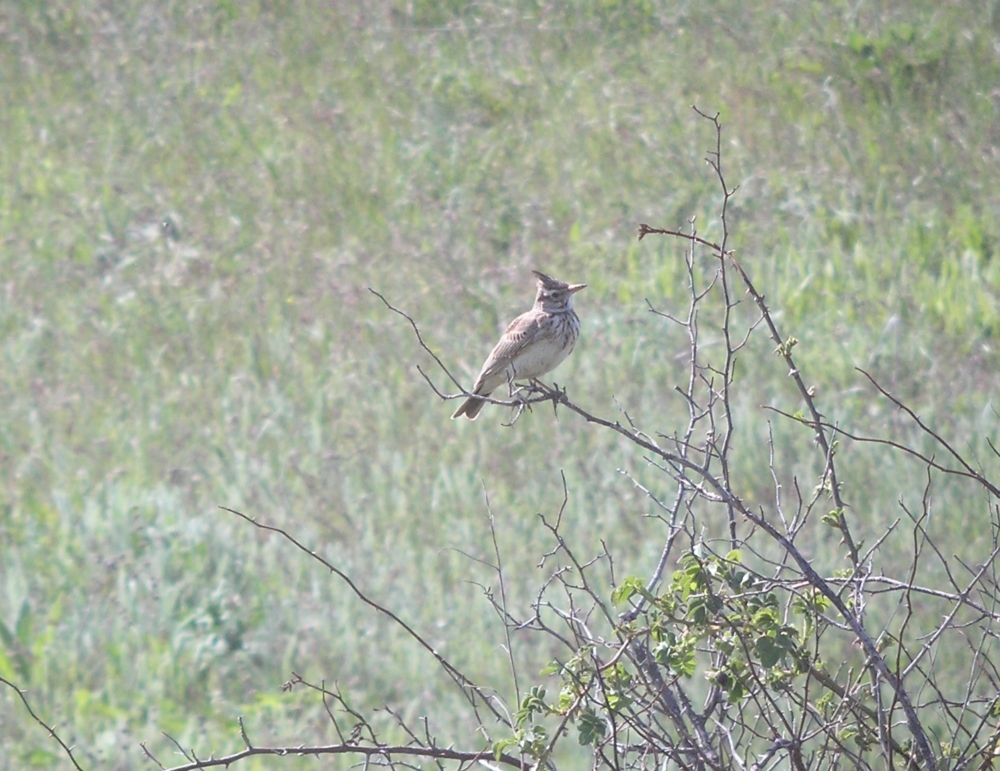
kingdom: Animalia
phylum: Chordata
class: Aves
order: Passeriformes
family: Alaudidae
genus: Galerida
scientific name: Galerida cristata
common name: Crested lark
